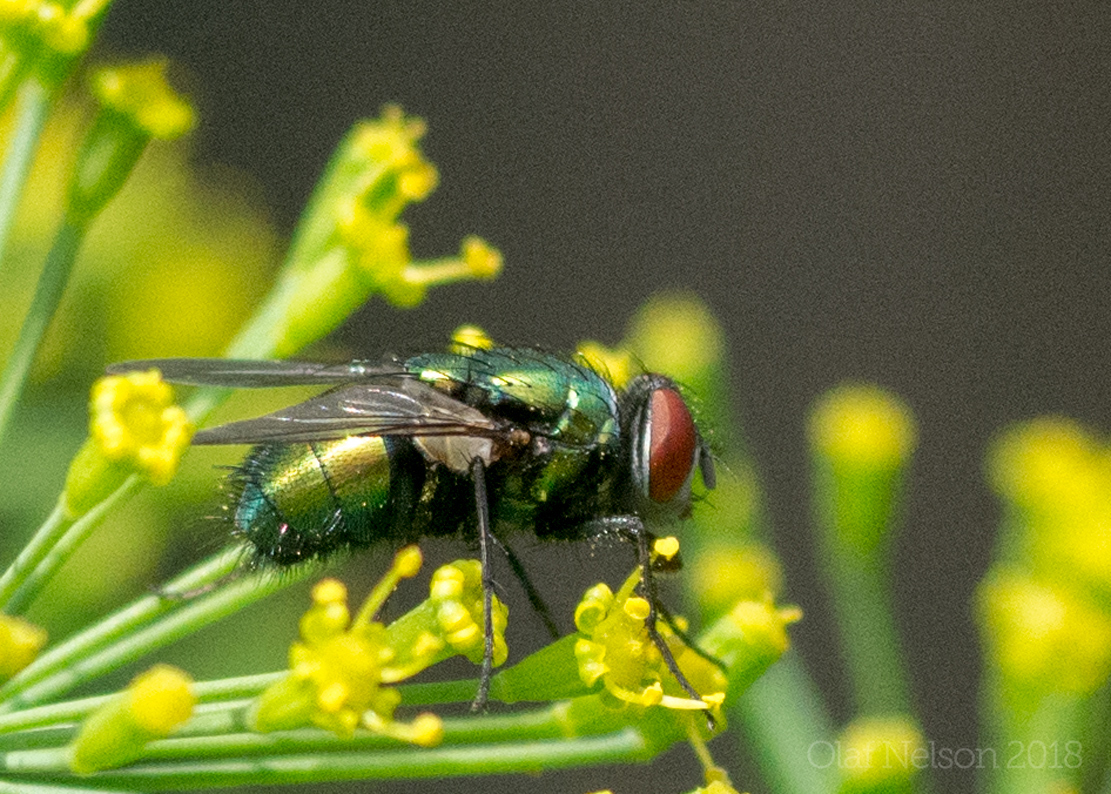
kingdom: Animalia
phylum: Arthropoda
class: Insecta
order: Diptera
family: Calliphoridae
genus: Lucilia
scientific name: Lucilia sericata
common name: Blow fly
